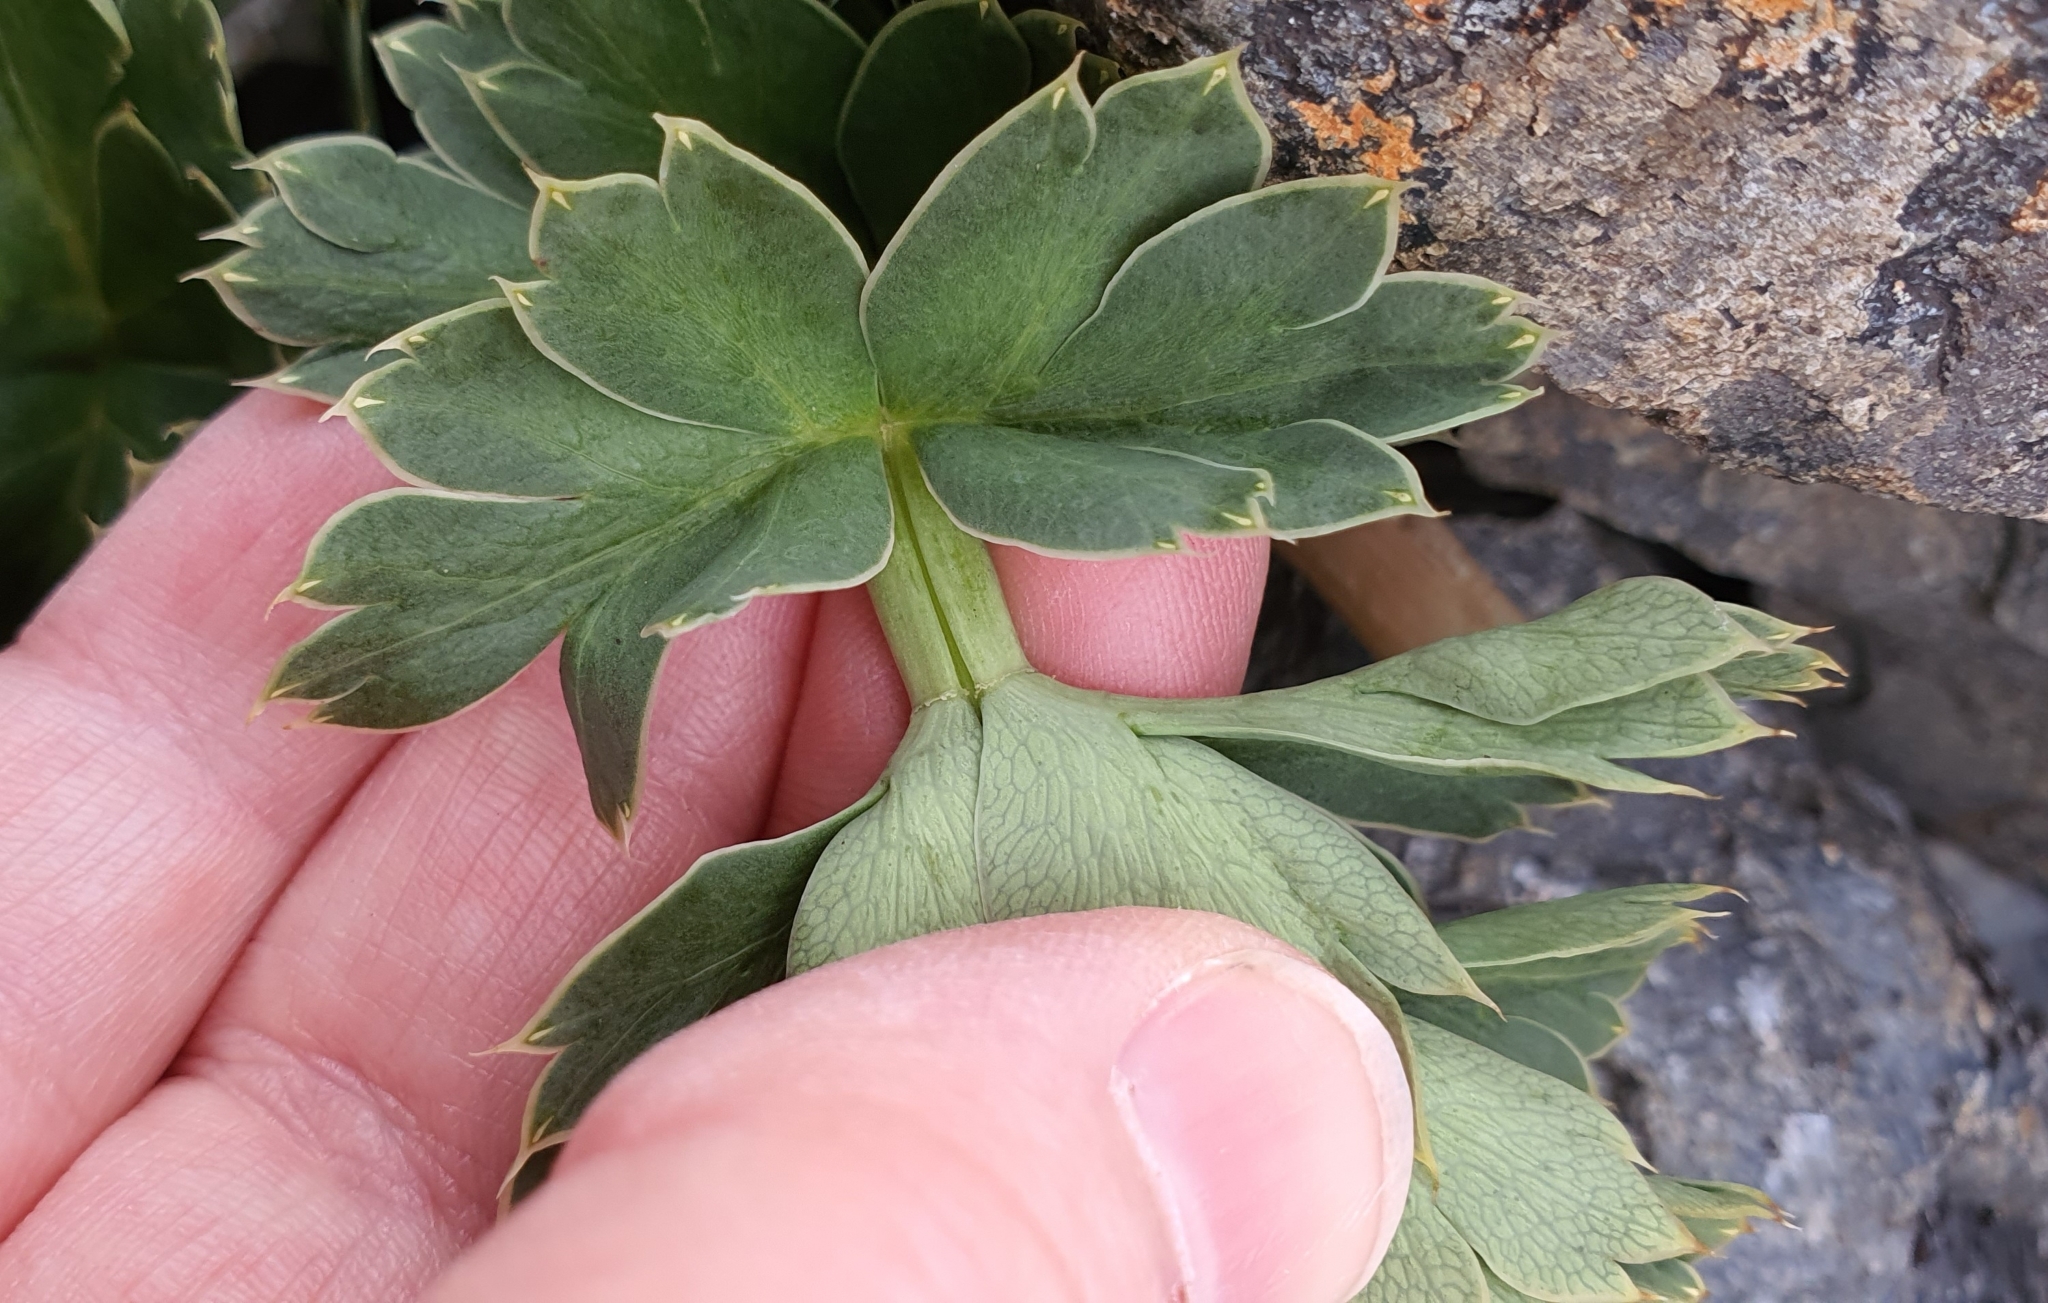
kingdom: Plantae
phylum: Tracheophyta
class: Magnoliopsida
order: Apiales
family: Apiaceae
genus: Anisotome
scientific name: Anisotome pilifera
